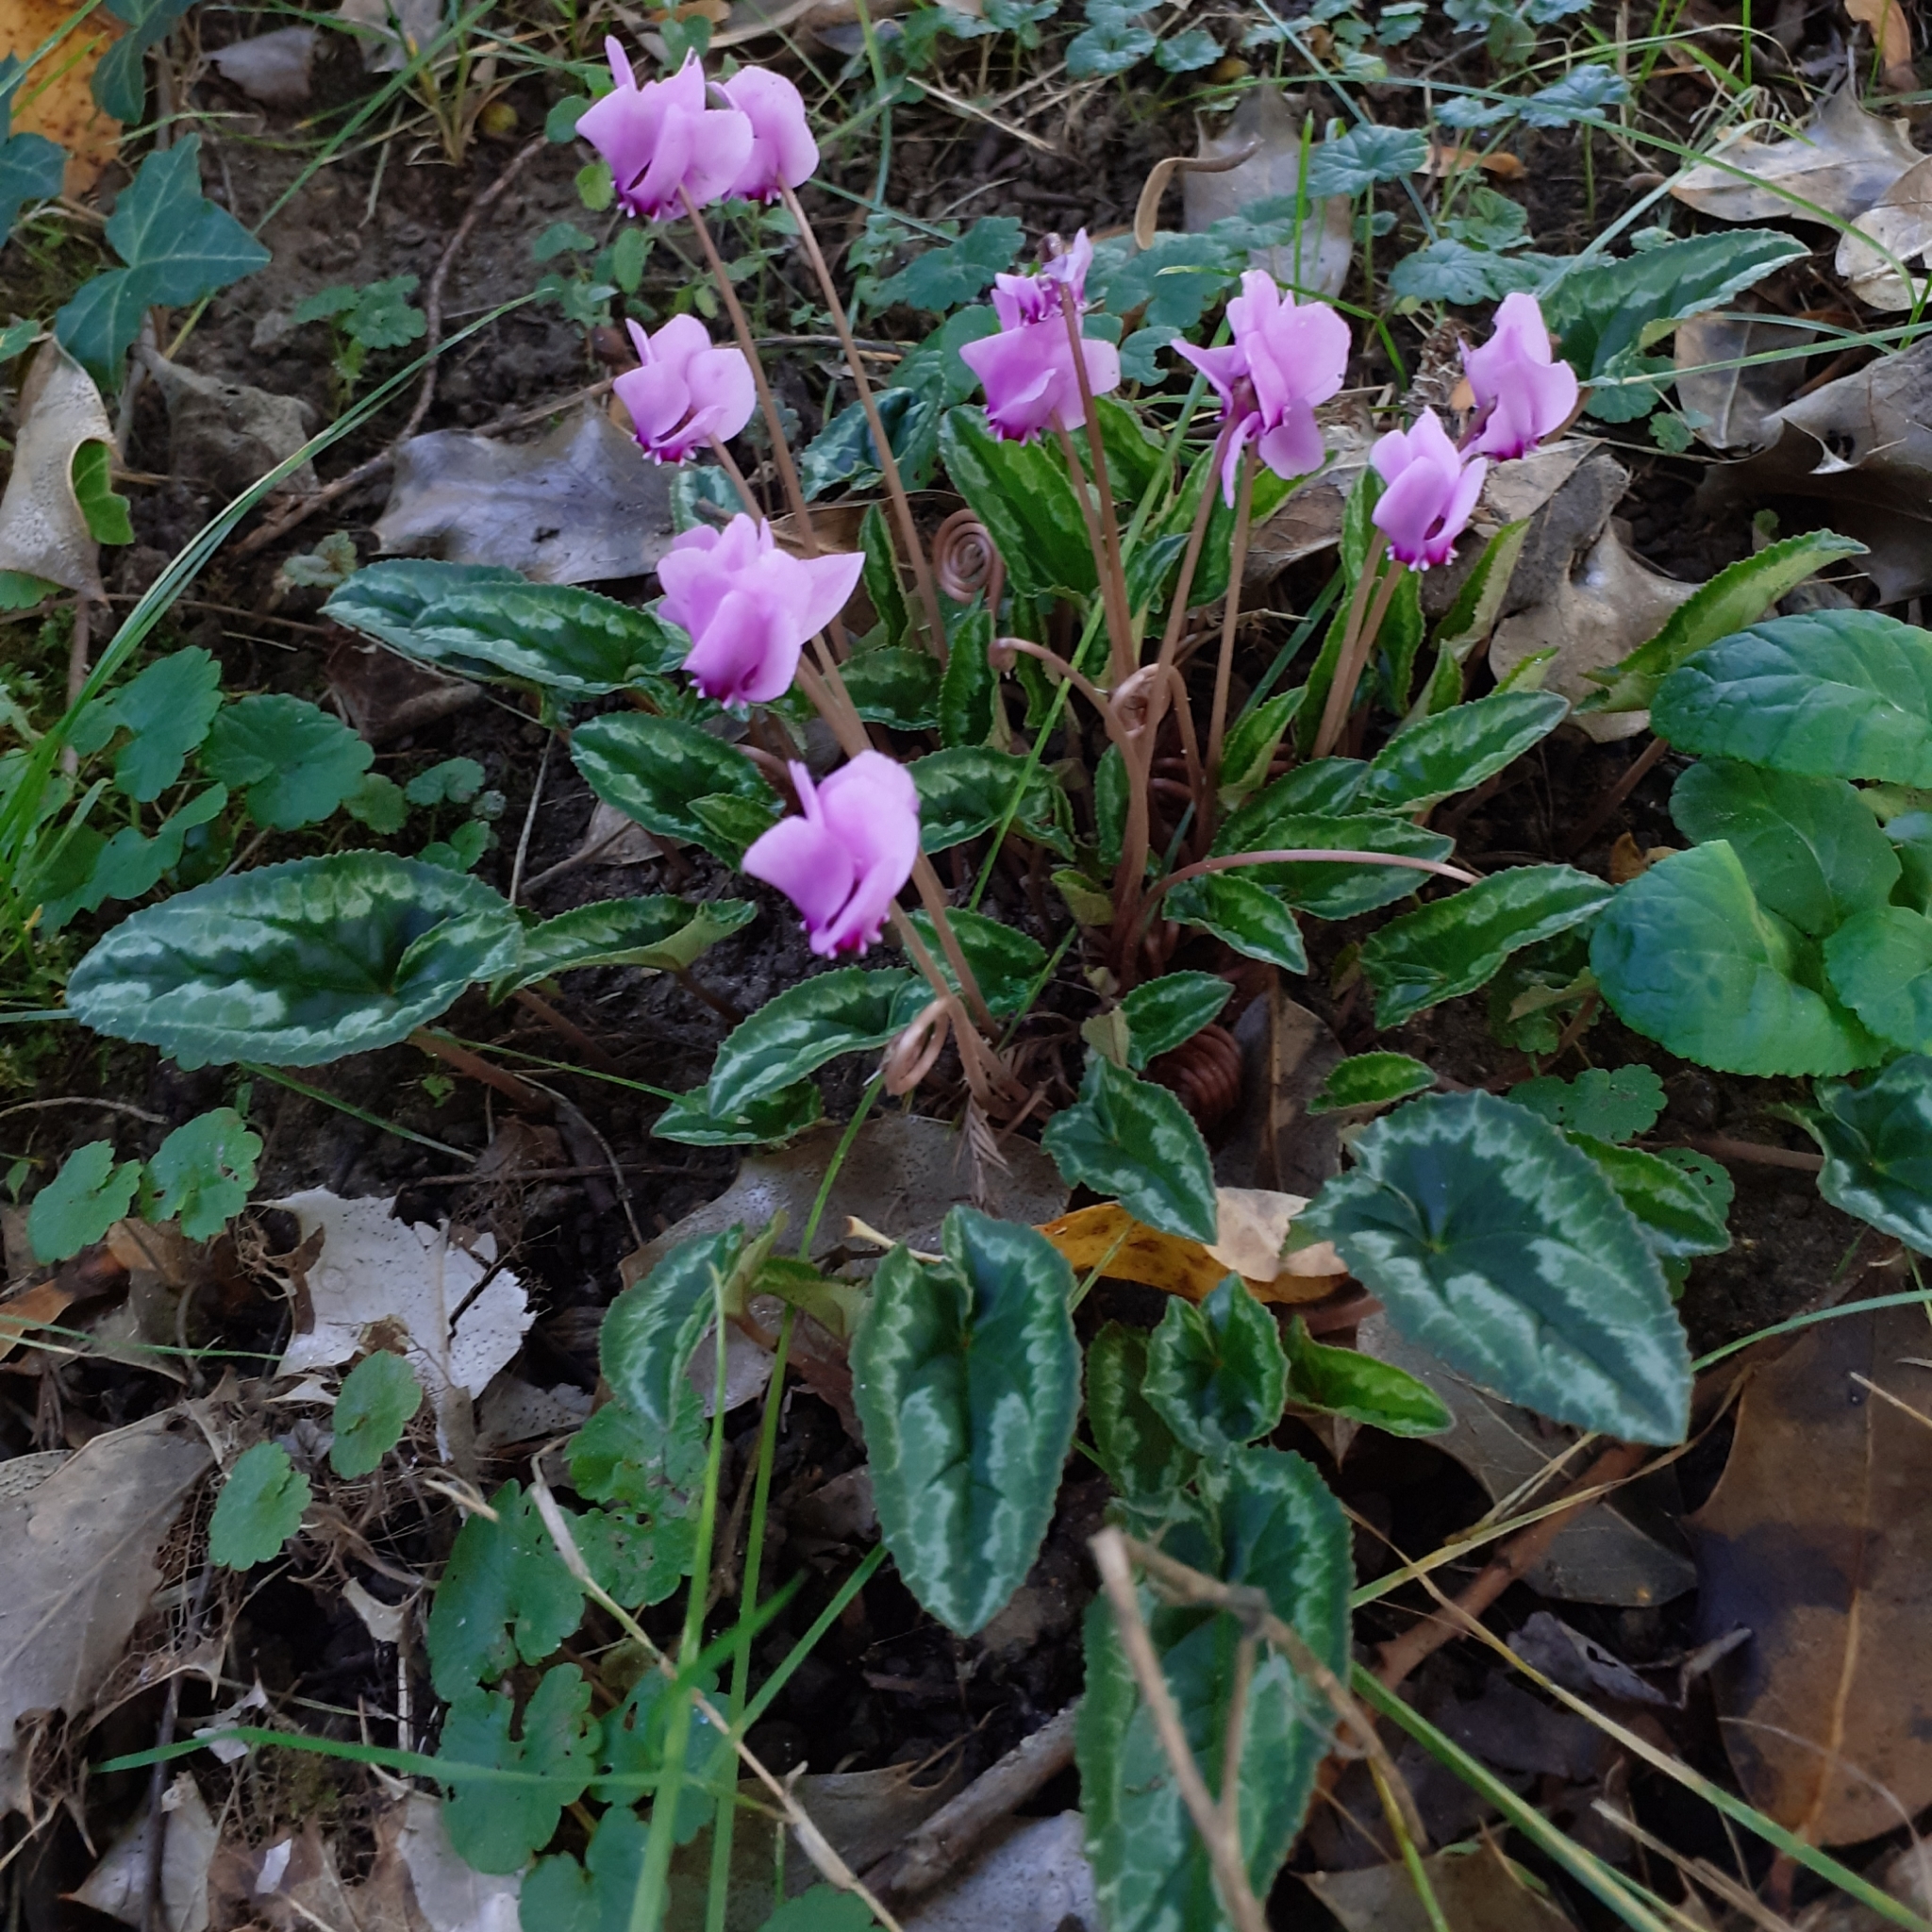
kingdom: Plantae
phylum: Tracheophyta
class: Magnoliopsida
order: Ericales
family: Primulaceae
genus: Cyclamen
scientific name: Cyclamen hederifolium
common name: Sowbread
